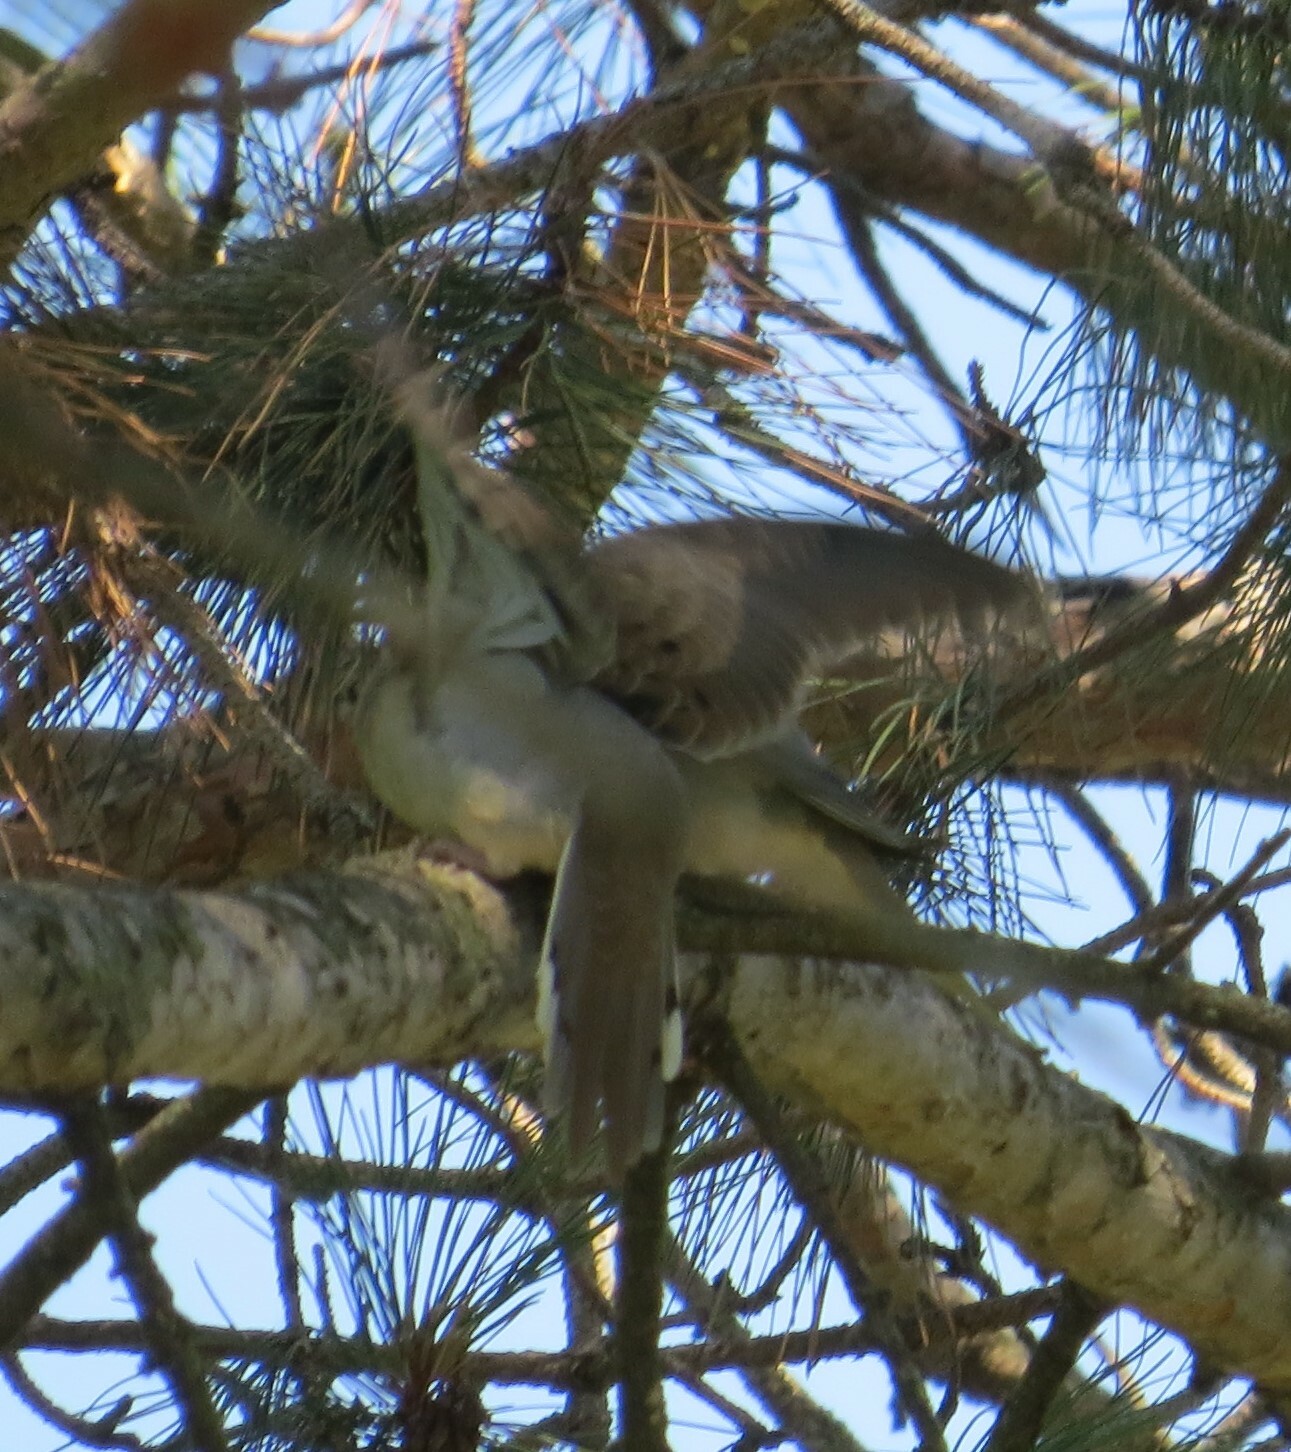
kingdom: Animalia
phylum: Chordata
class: Aves
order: Columbiformes
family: Columbidae
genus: Zenaida
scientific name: Zenaida macroura
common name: Mourning dove
